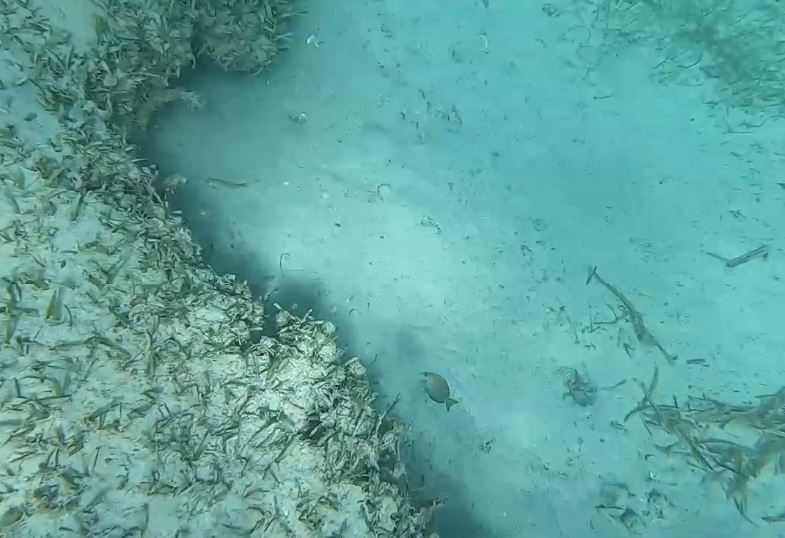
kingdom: Animalia
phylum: Chordata
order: Perciformes
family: Acanthuridae
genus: Acanthurus
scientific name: Acanthurus bahianus
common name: Ocean surgeon
